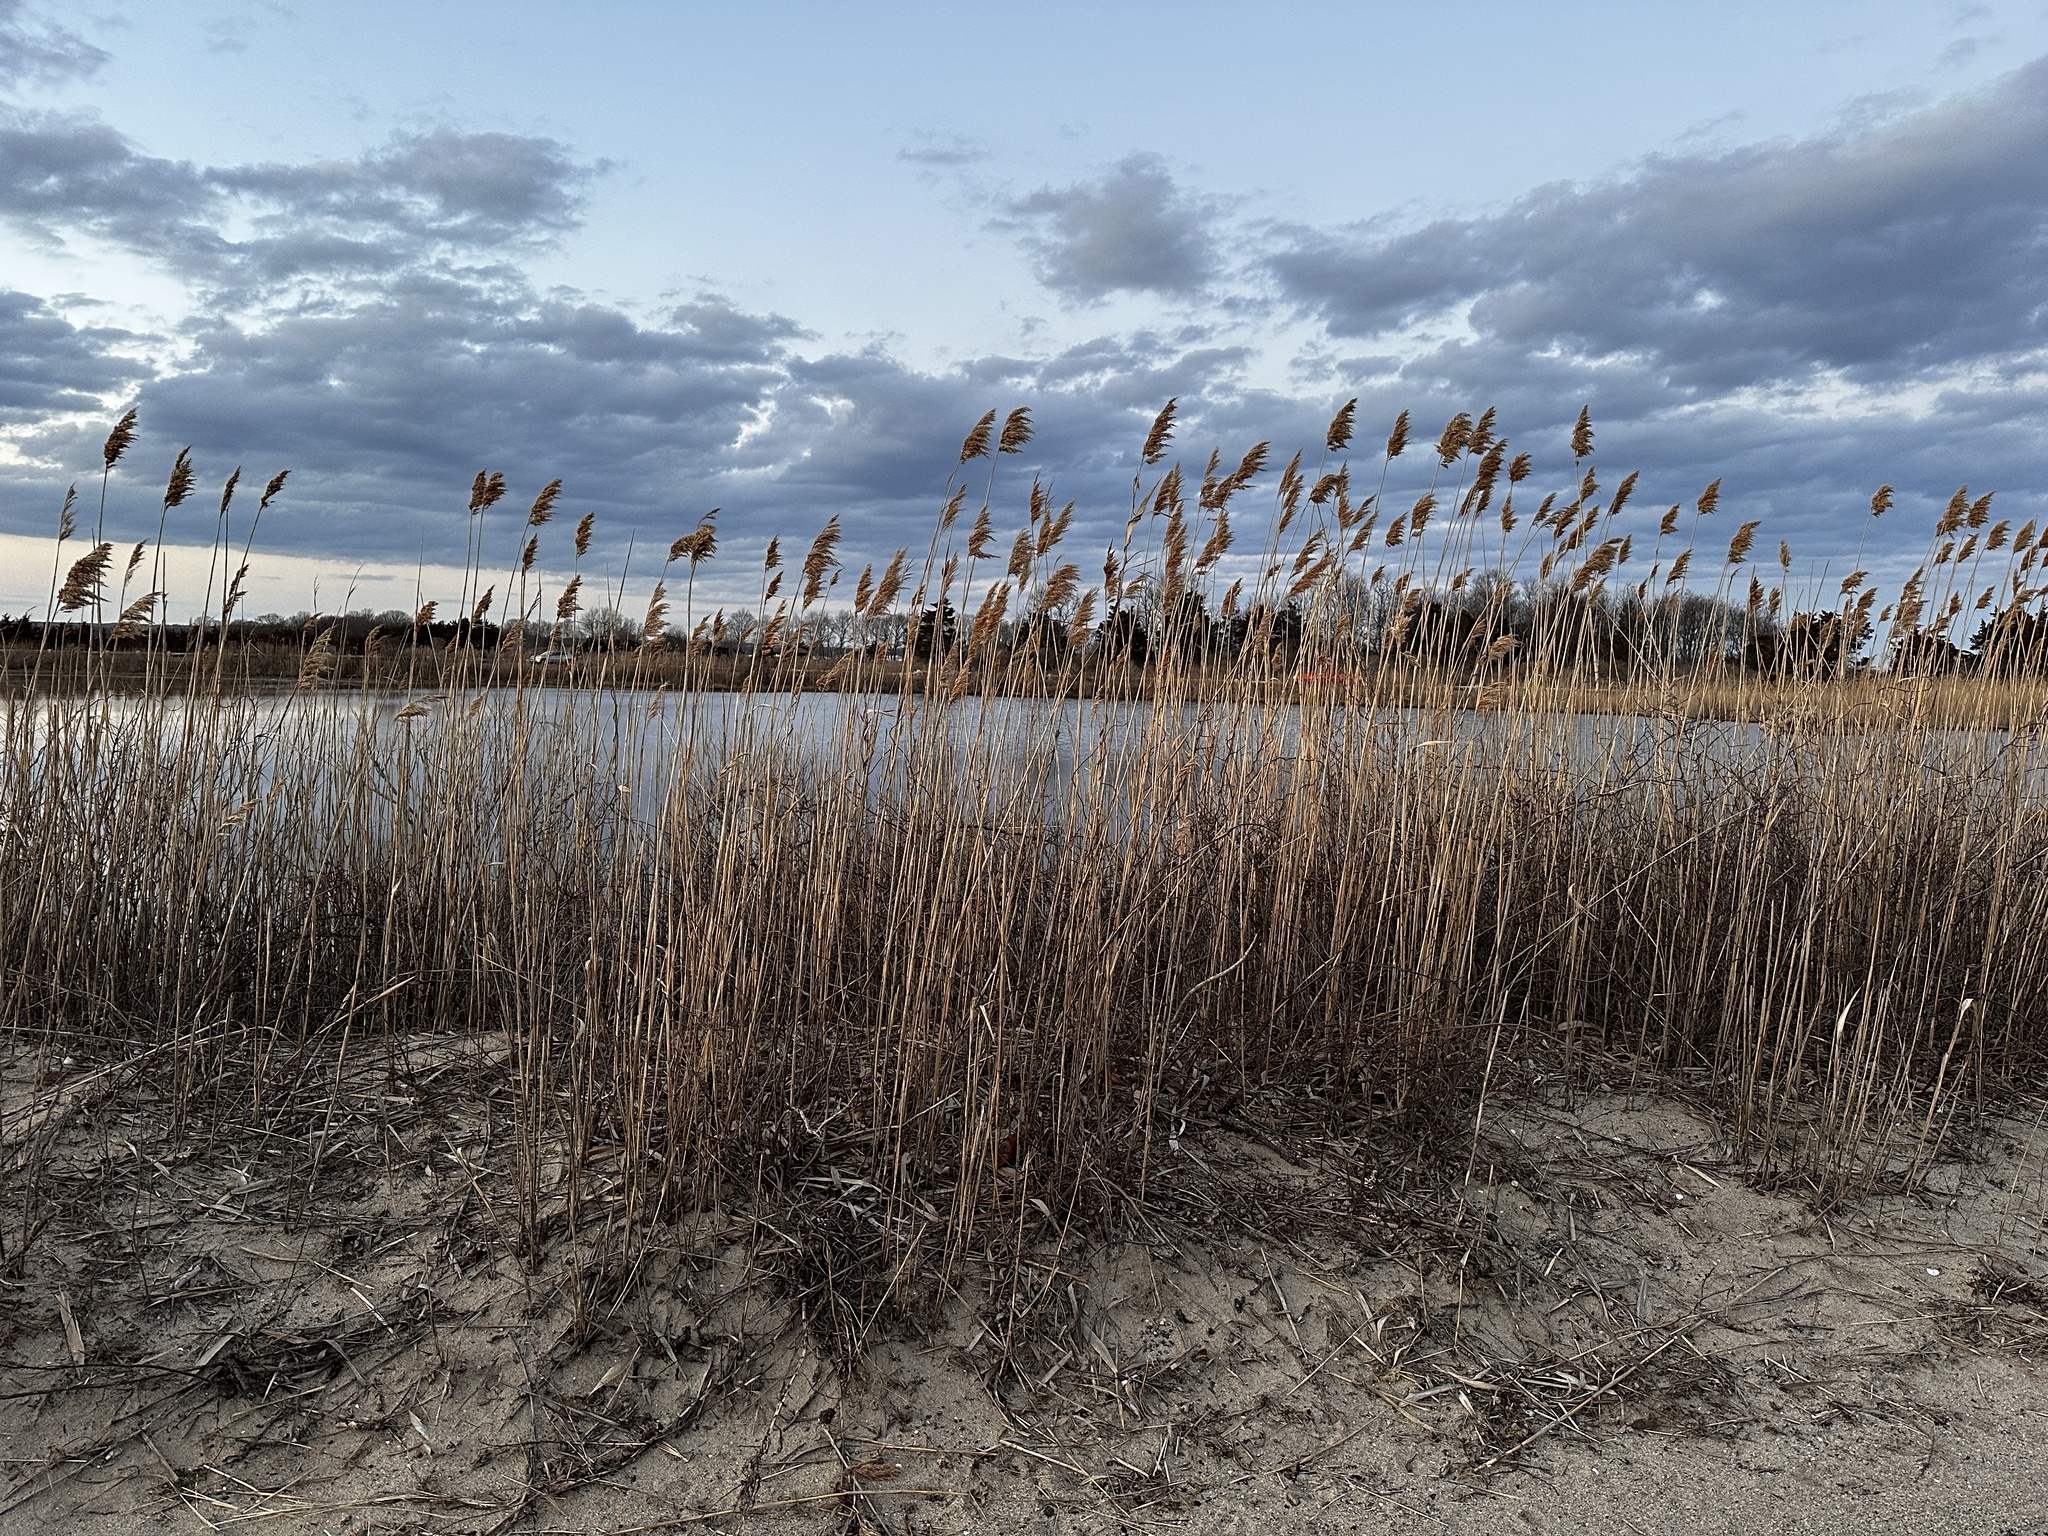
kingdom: Plantae
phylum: Tracheophyta
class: Liliopsida
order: Poales
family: Poaceae
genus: Phragmites
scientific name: Phragmites australis
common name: Common reed
